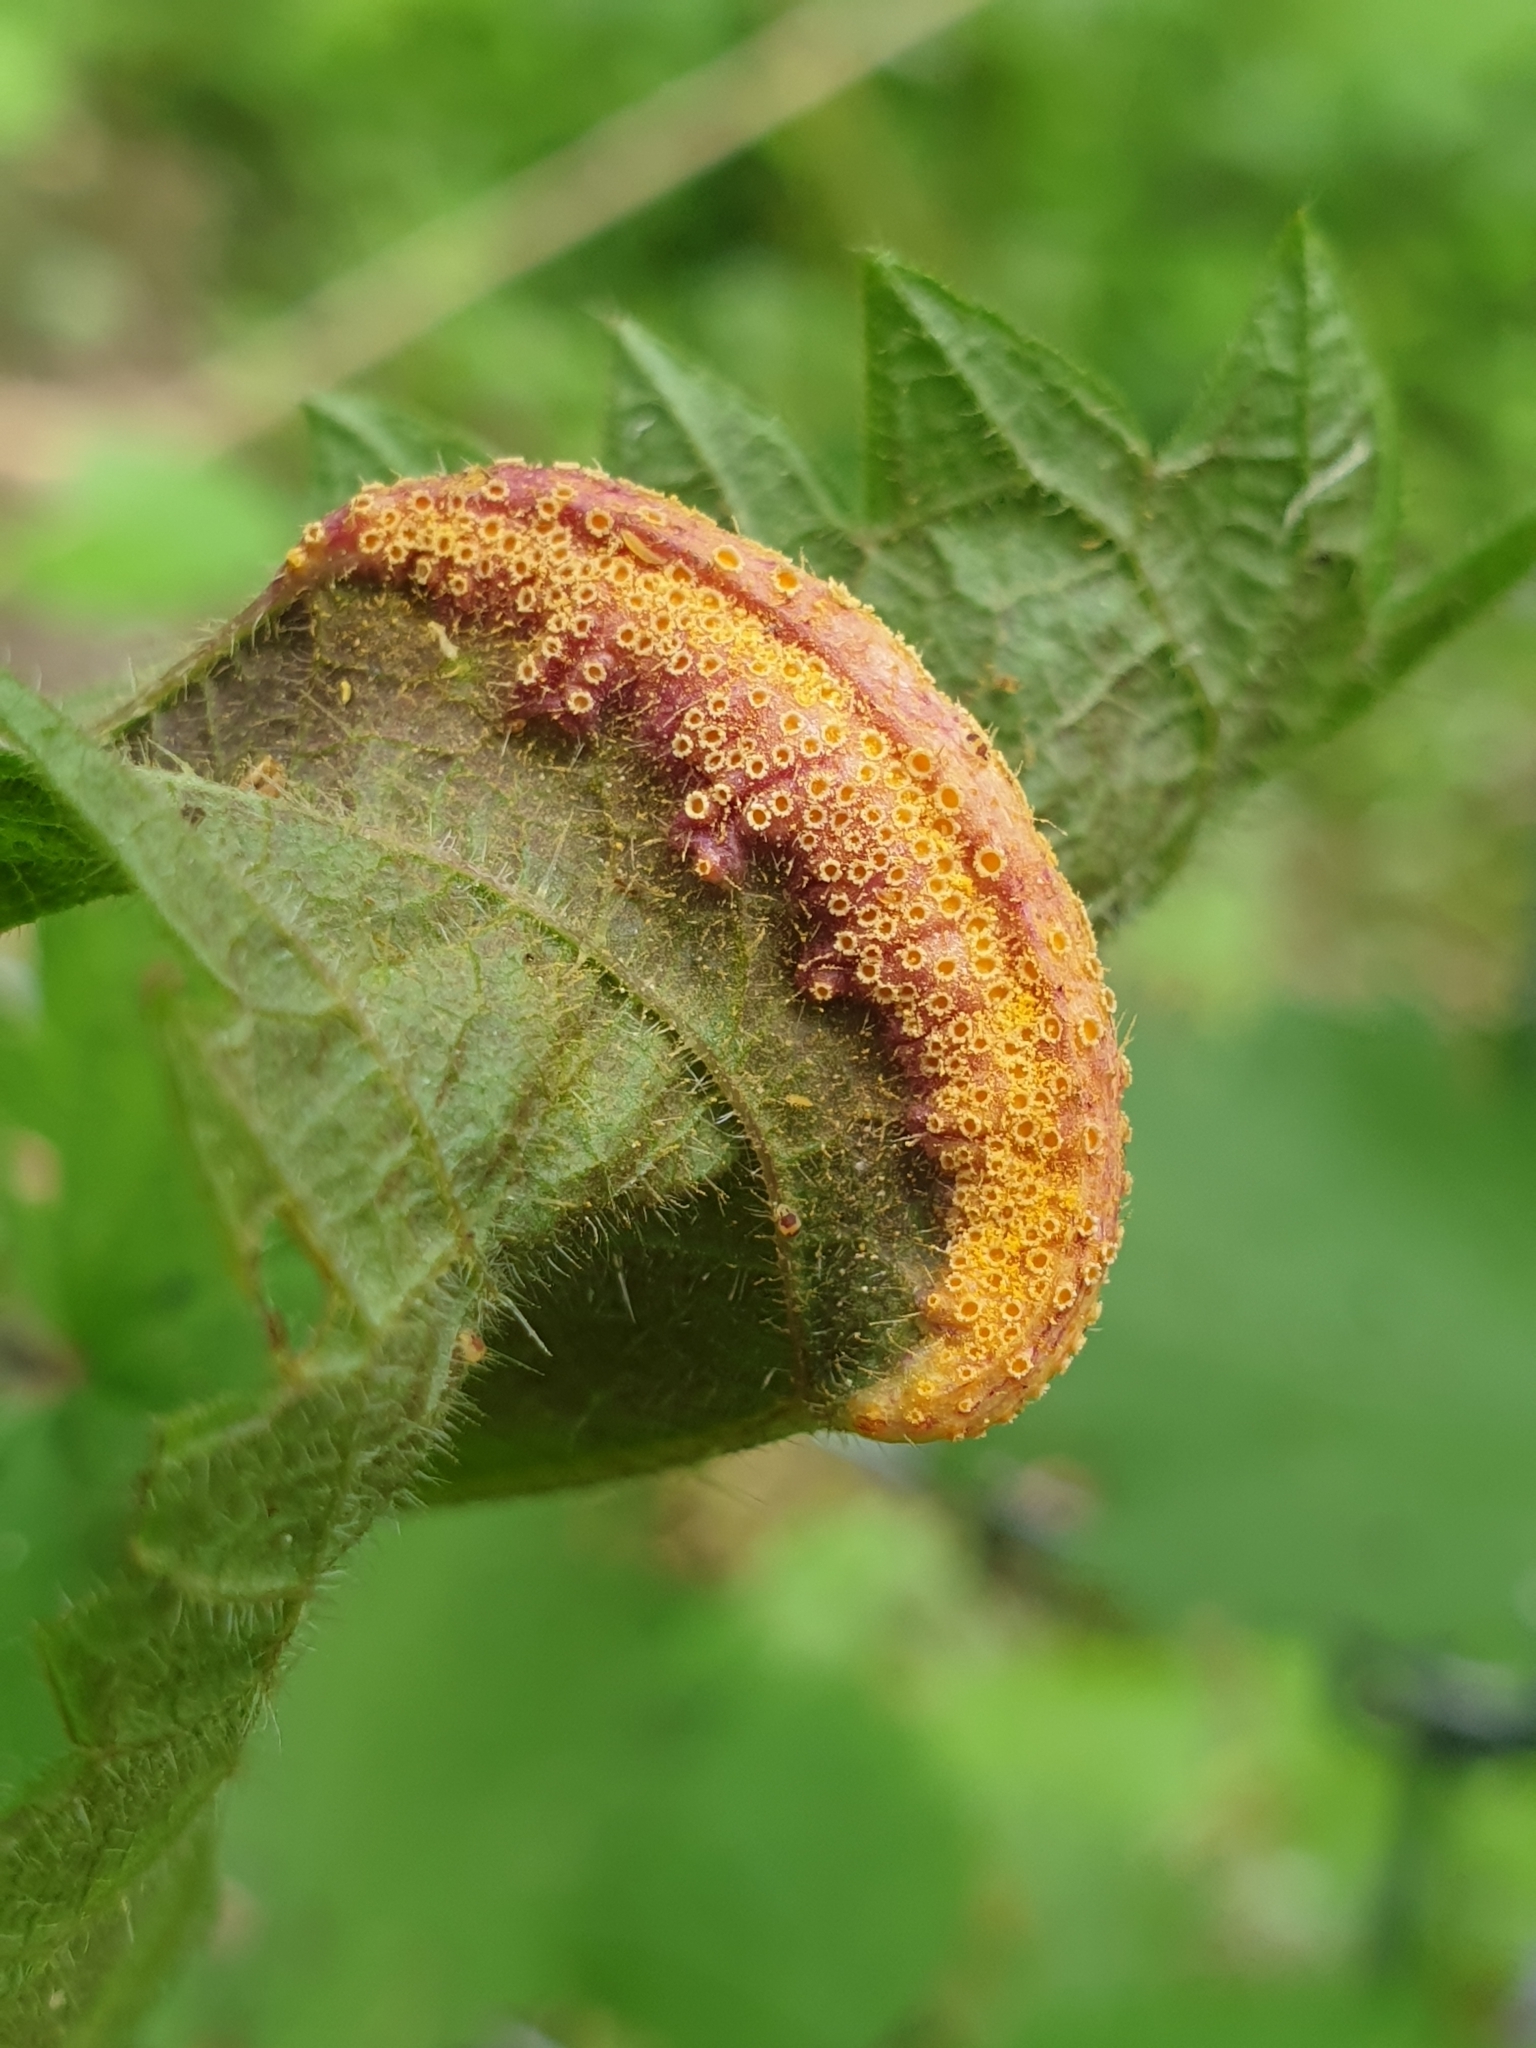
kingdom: Fungi
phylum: Basidiomycota
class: Pucciniomycetes
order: Pucciniales
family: Pucciniaceae
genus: Puccinia
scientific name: Puccinia urticata
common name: Nettle clustercup rust fungus
